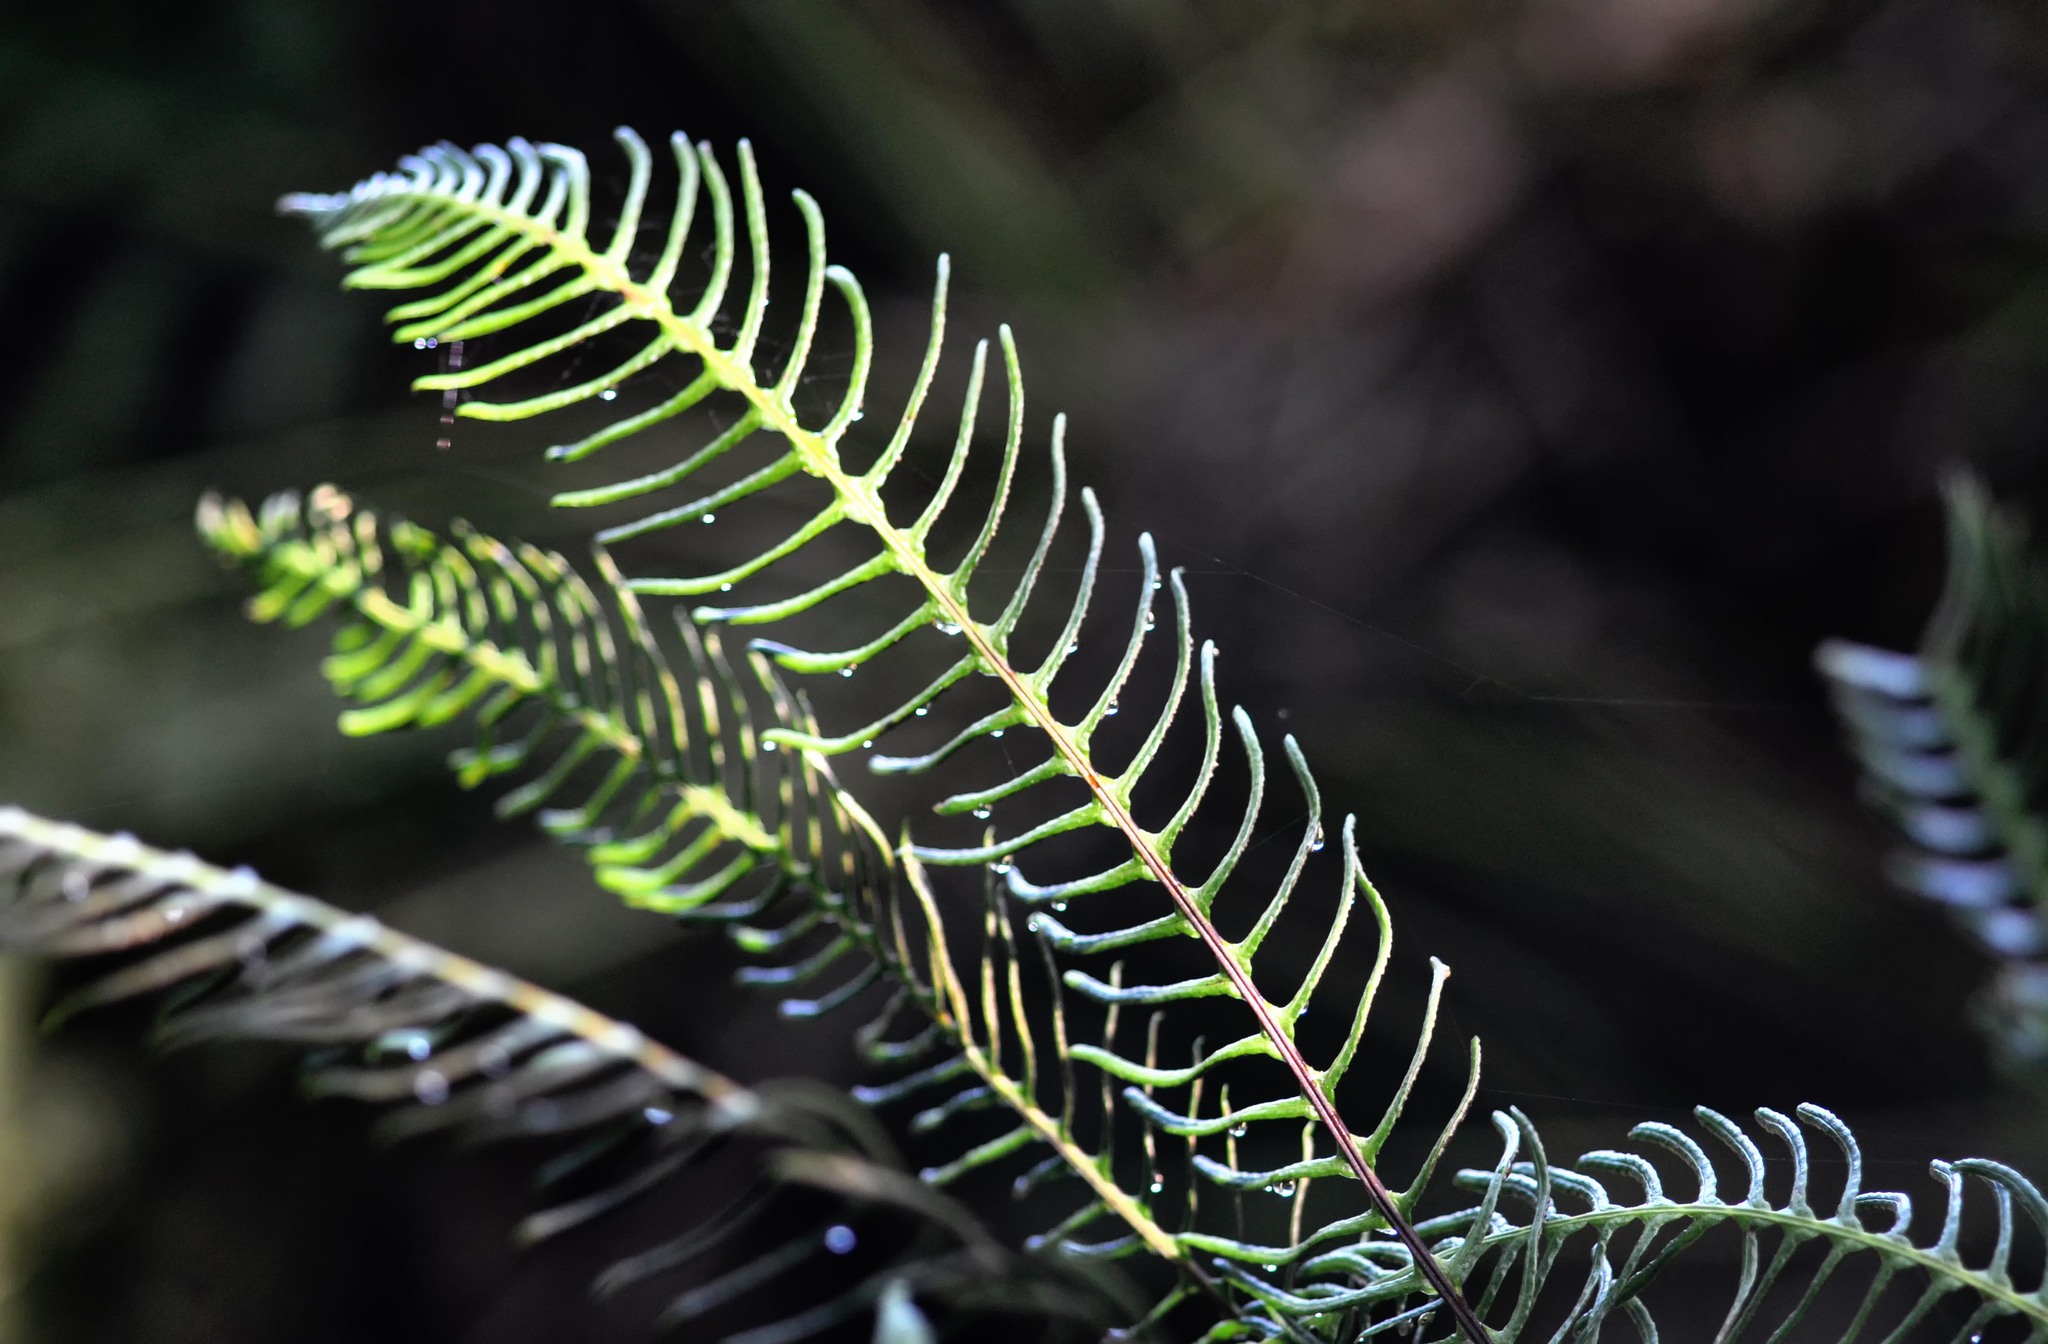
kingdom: Plantae
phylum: Tracheophyta
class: Polypodiopsida
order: Polypodiales
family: Blechnaceae
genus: Struthiopteris
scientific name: Struthiopteris spicant
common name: Deer fern
